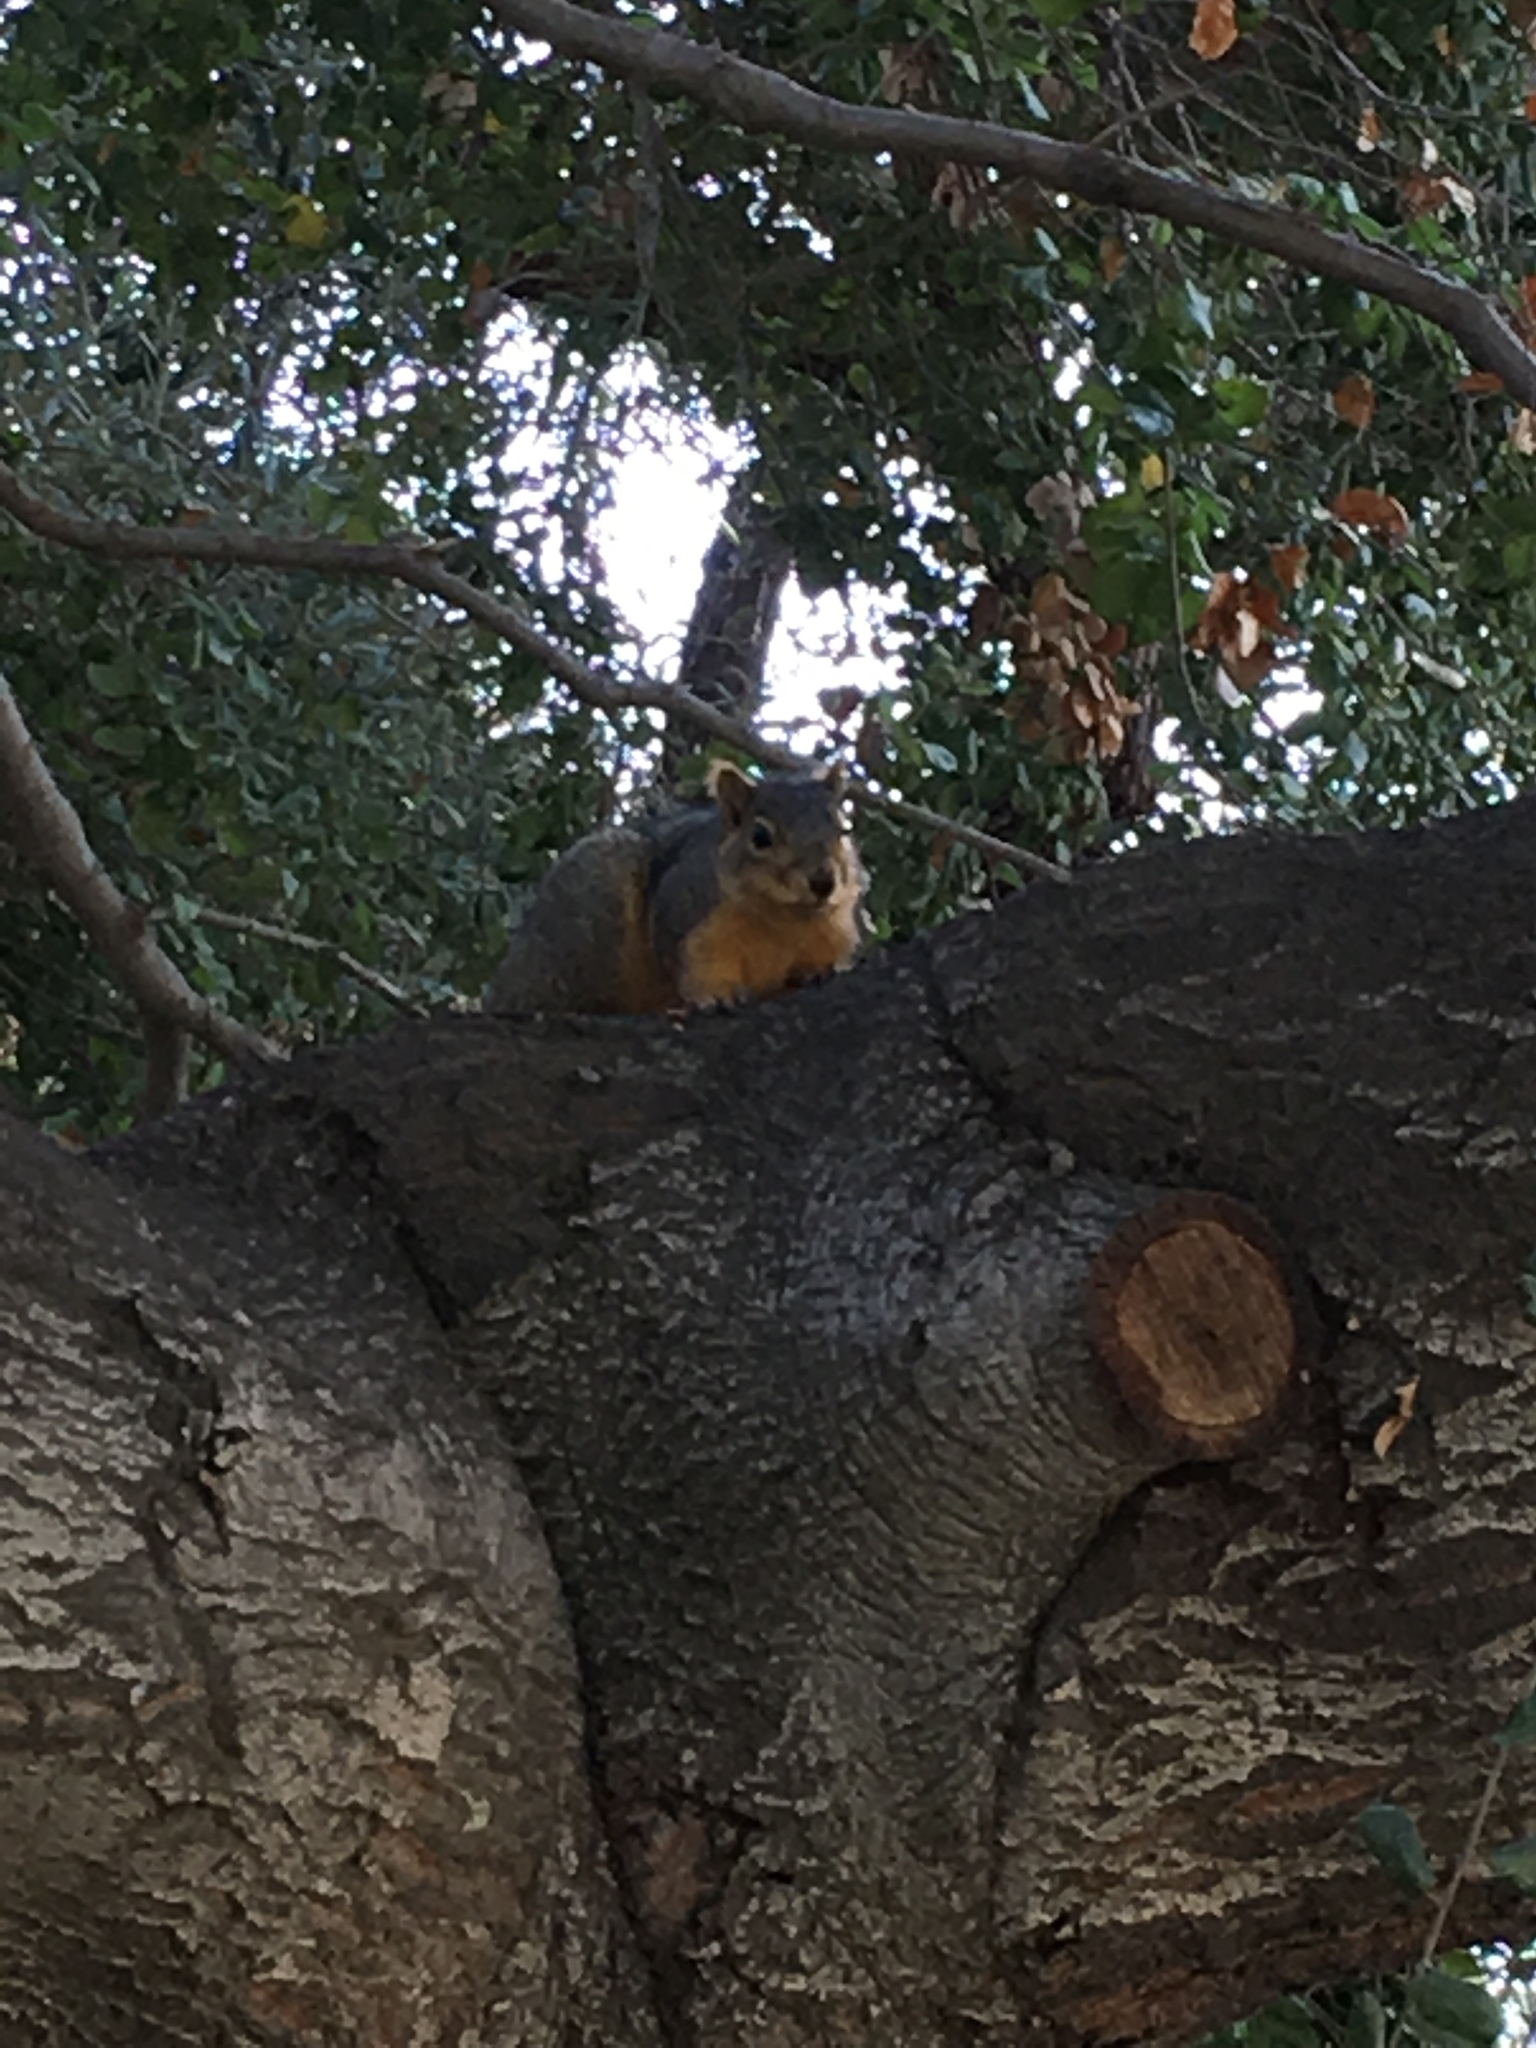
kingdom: Animalia
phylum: Chordata
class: Mammalia
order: Rodentia
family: Sciuridae
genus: Sciurus
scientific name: Sciurus niger
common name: Fox squirrel
